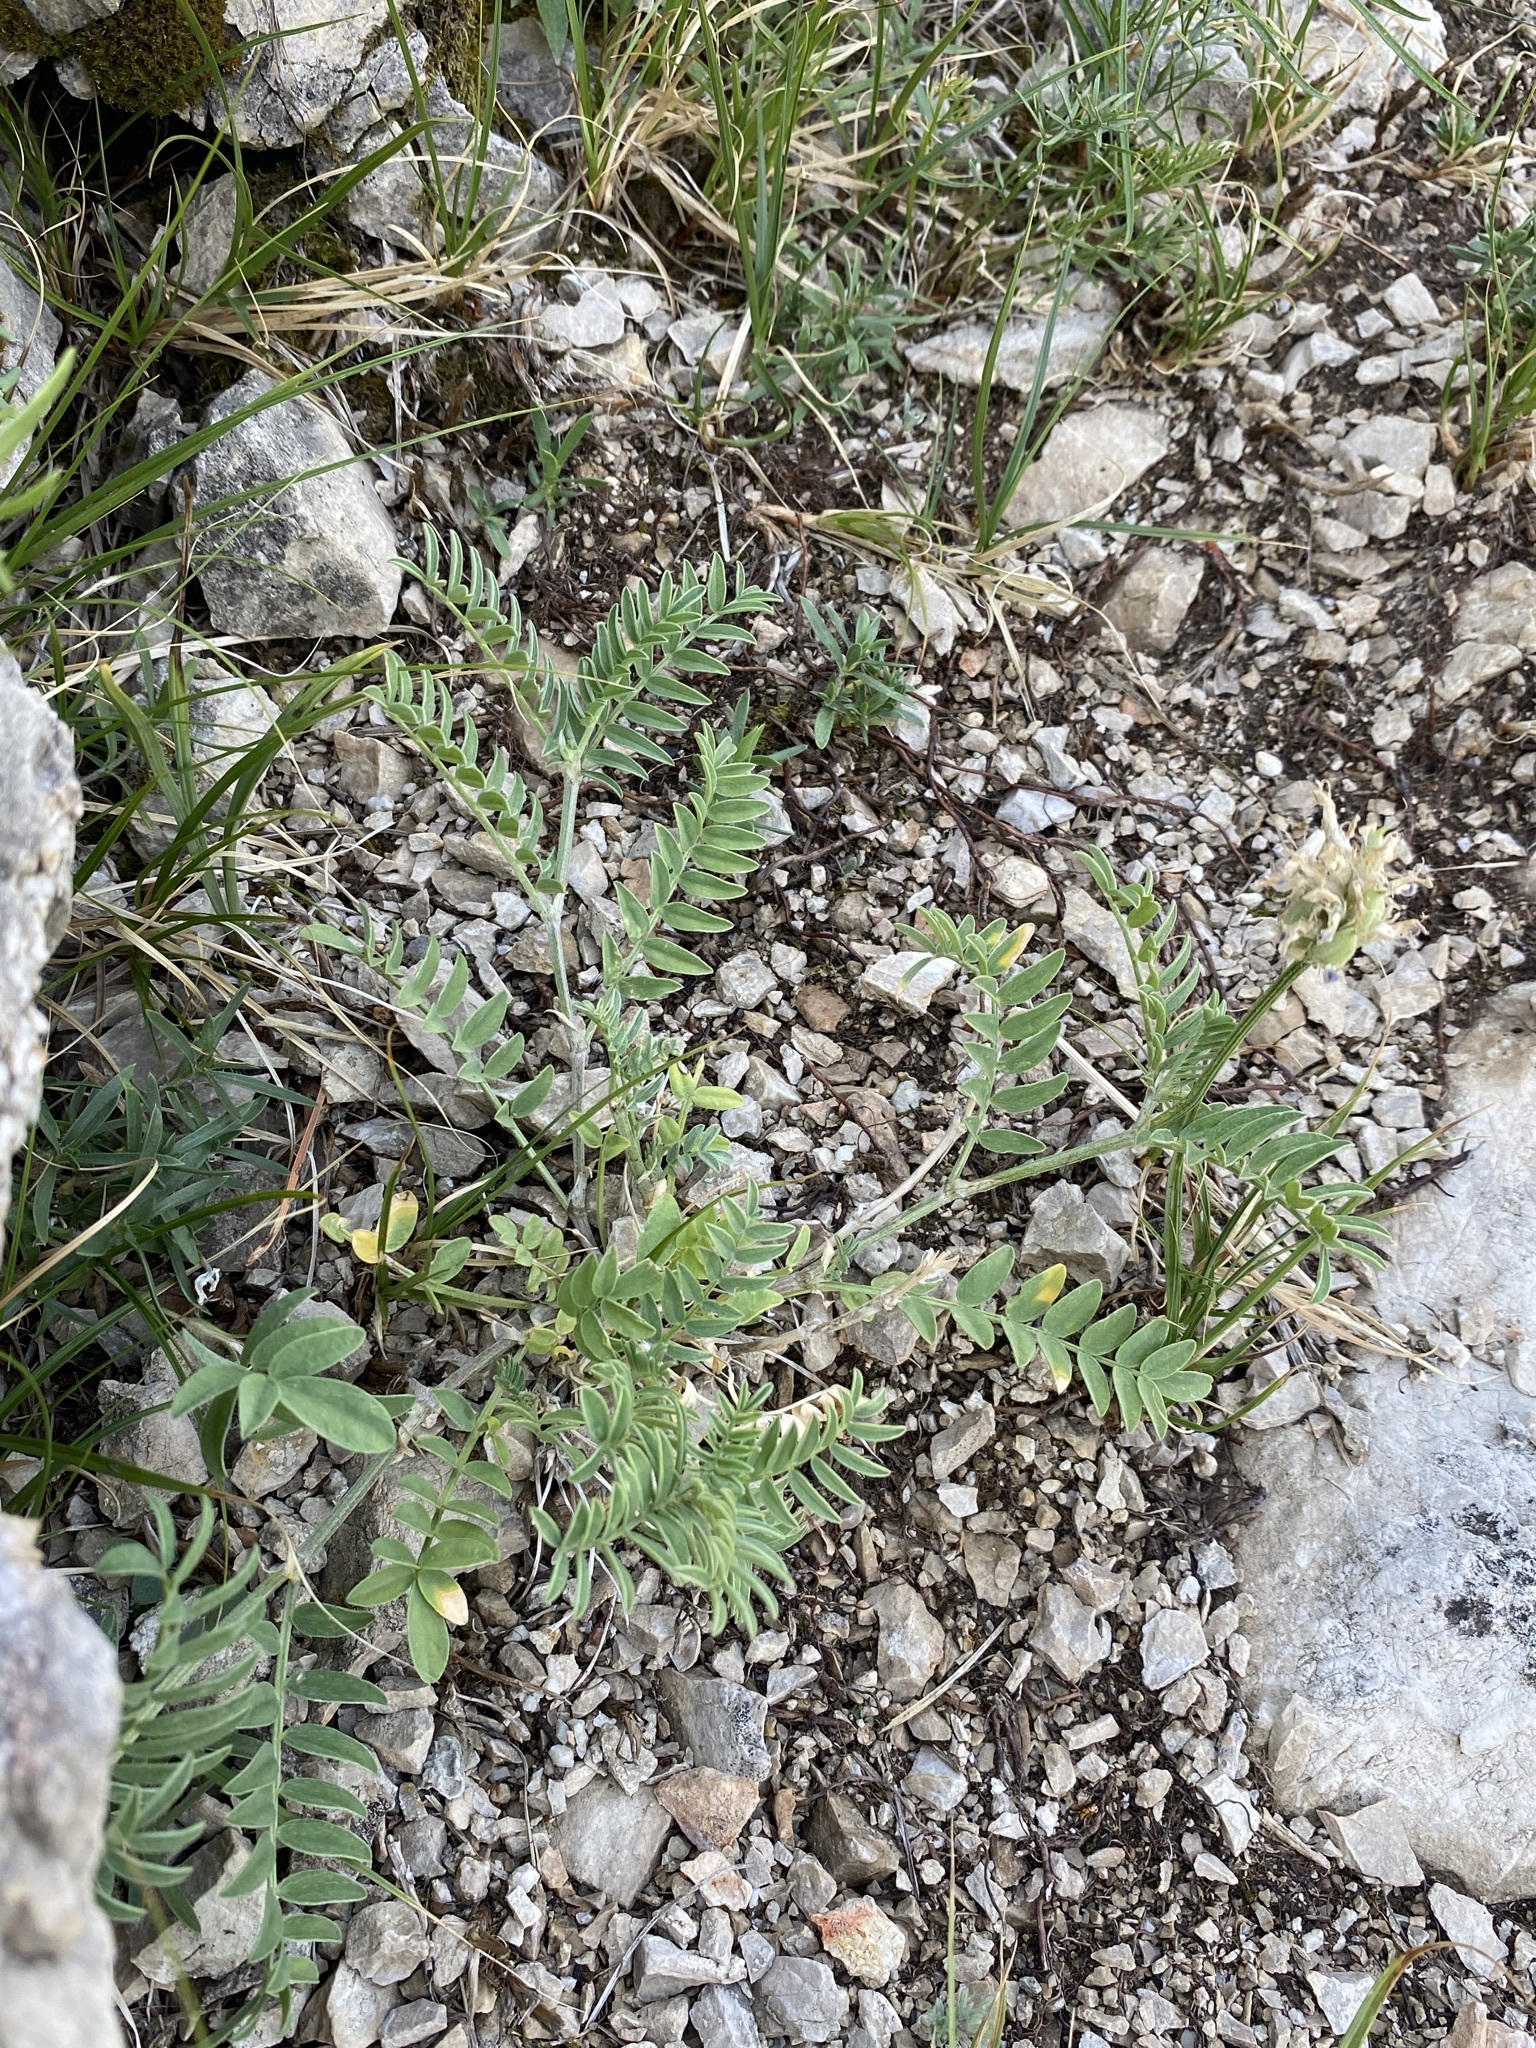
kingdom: Plantae
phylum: Tracheophyta
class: Magnoliopsida
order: Fabales
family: Fabaceae
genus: Astragalus
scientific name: Astragalus laxmannii
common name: Laxmann's milk-vetch
